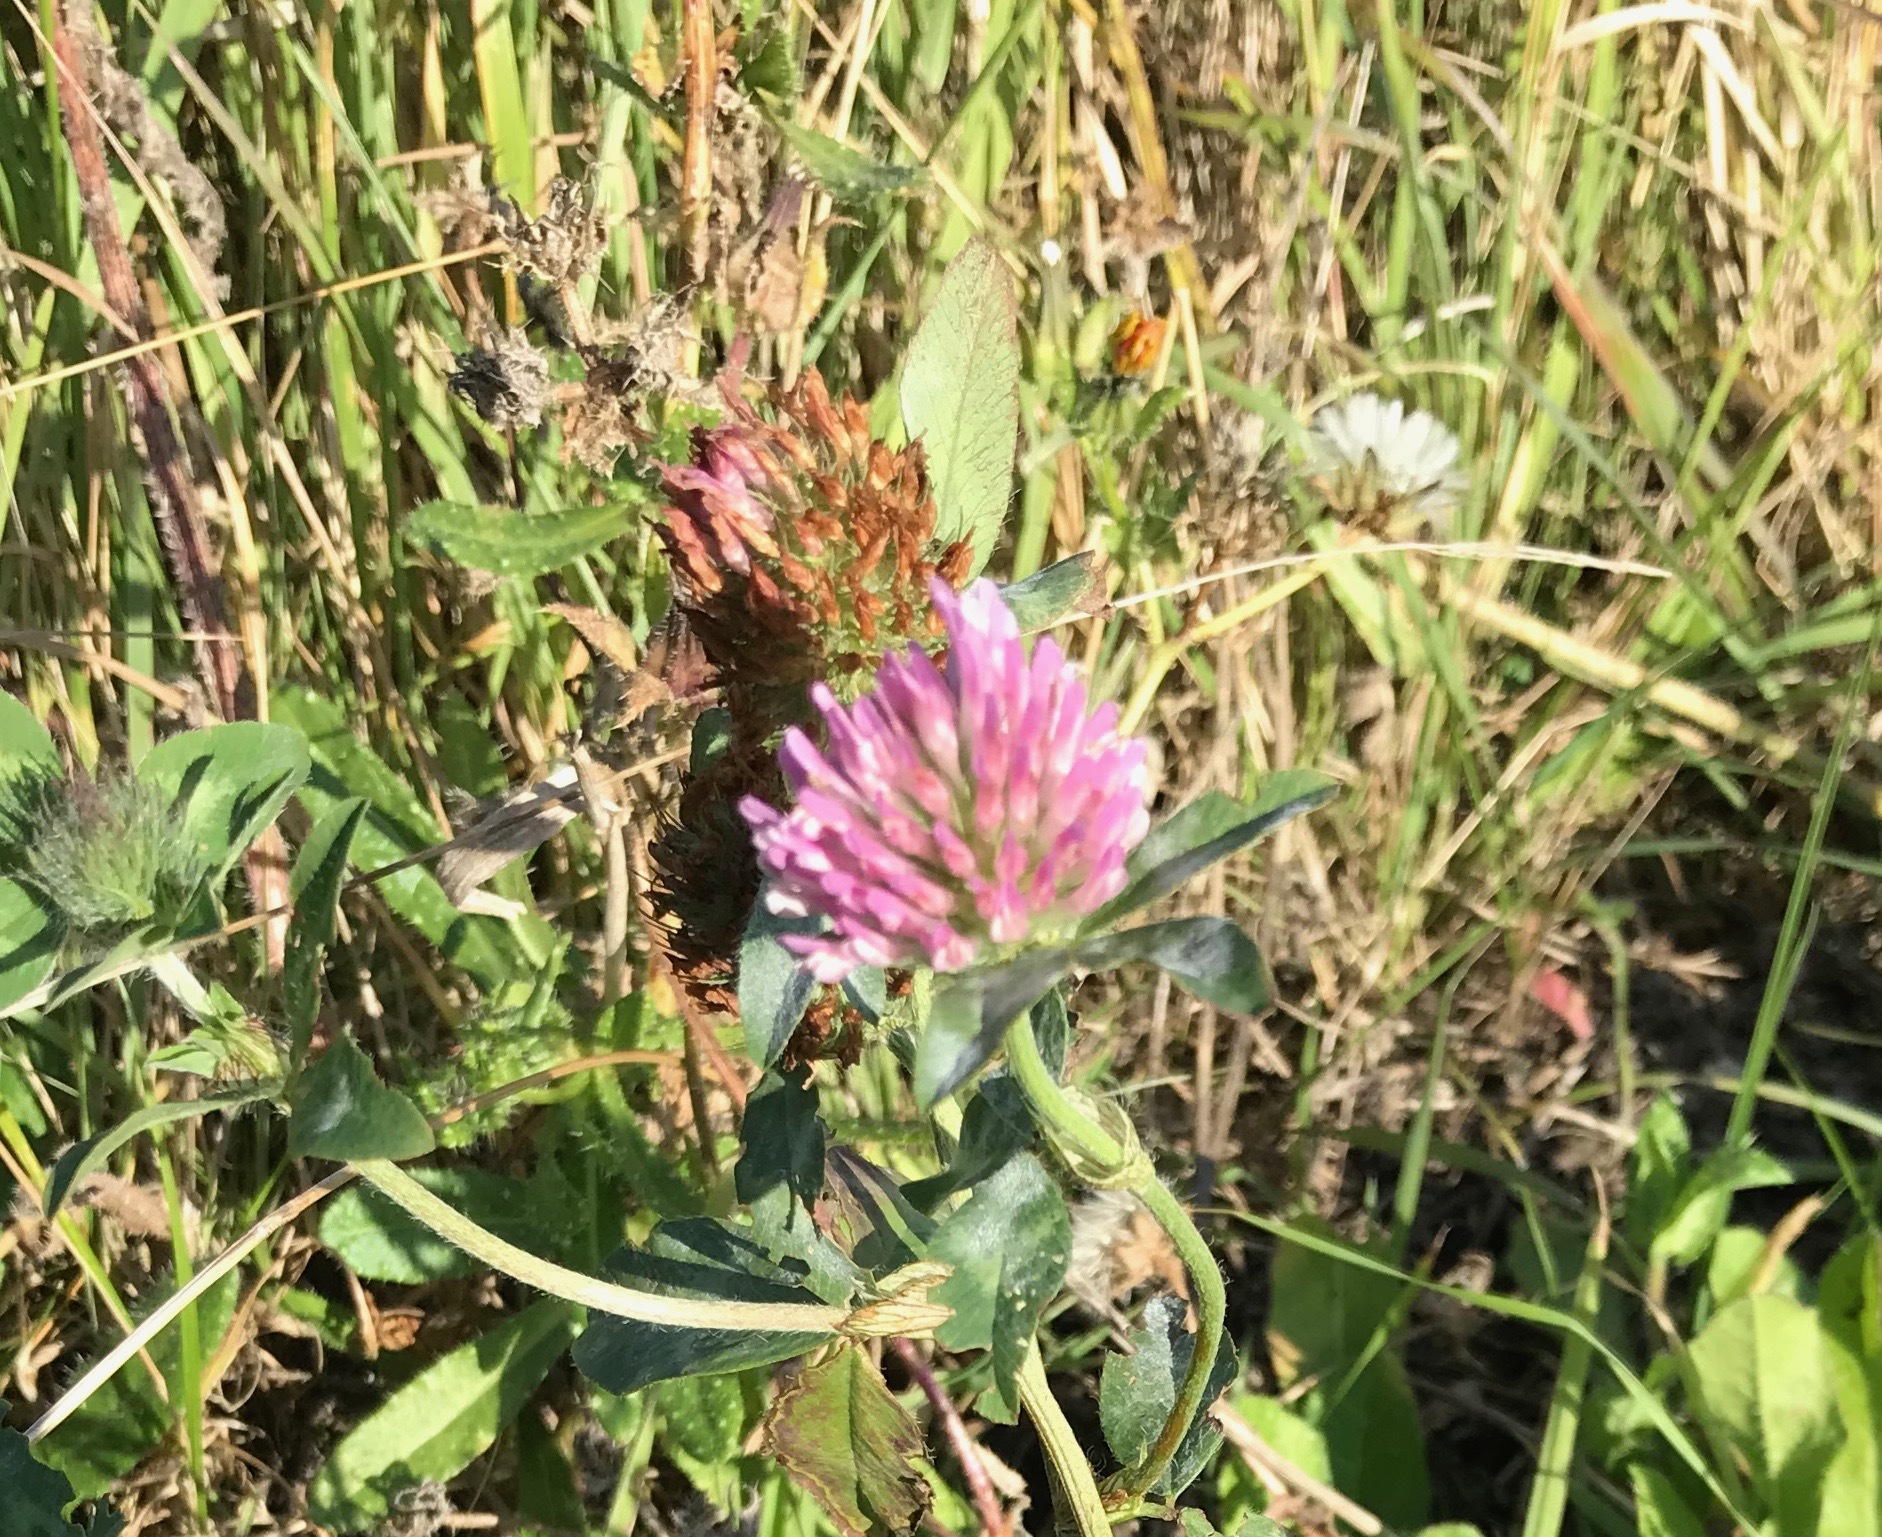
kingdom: Plantae
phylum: Tracheophyta
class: Magnoliopsida
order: Fabales
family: Fabaceae
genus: Trifolium
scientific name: Trifolium pratense
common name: Red clover
